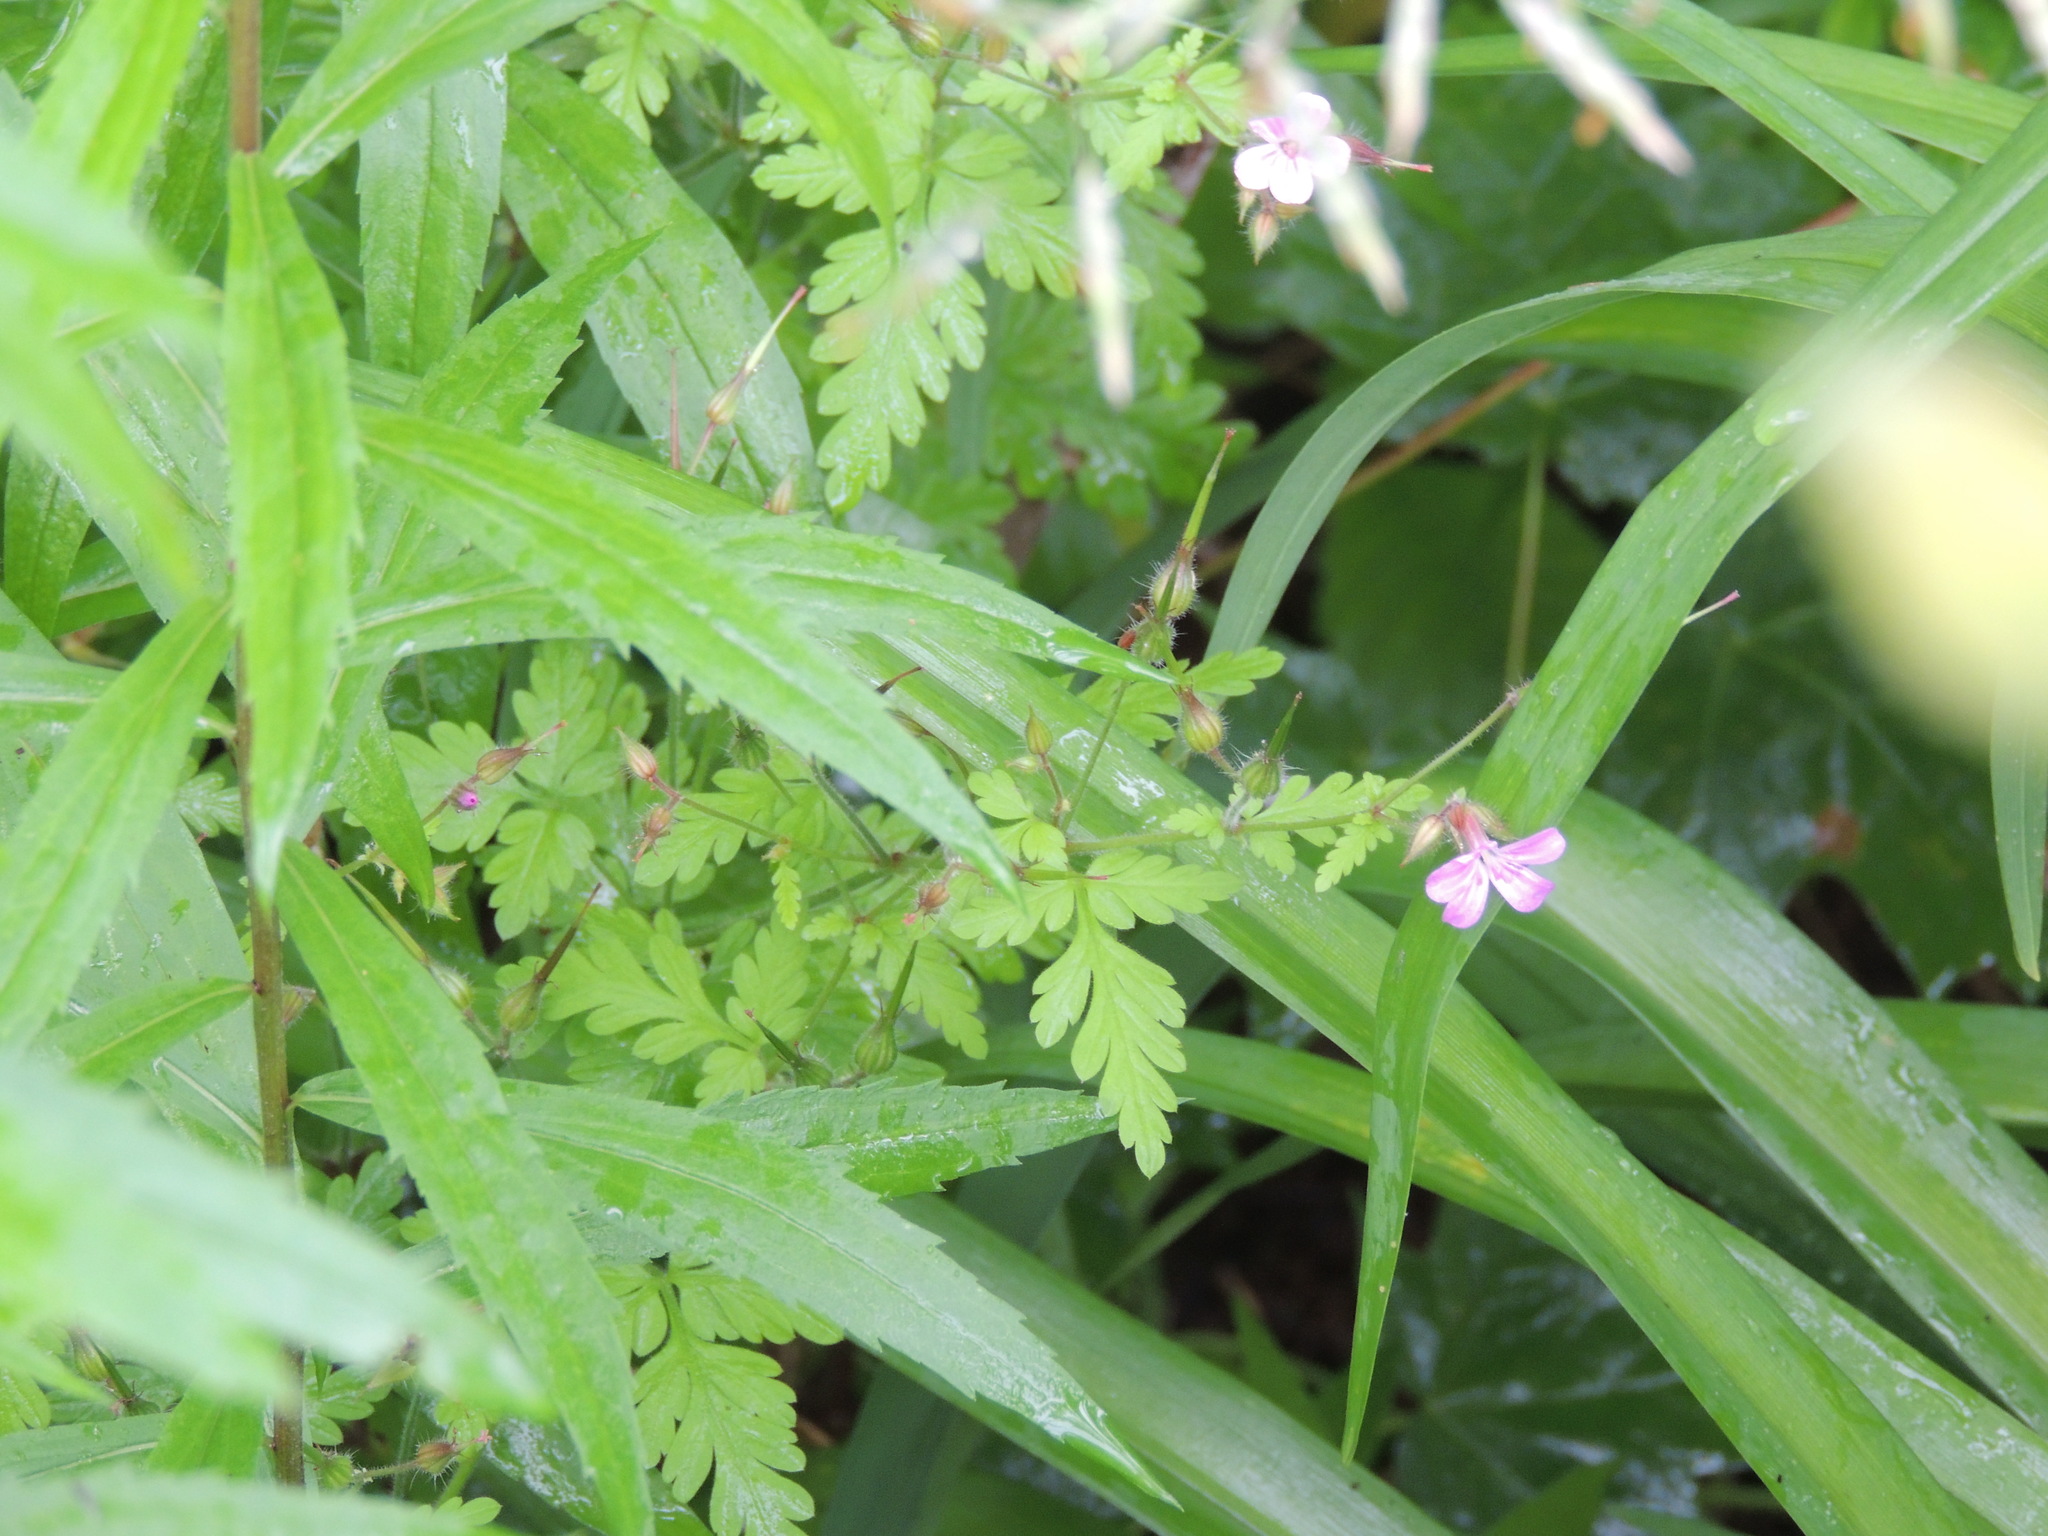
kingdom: Plantae
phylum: Tracheophyta
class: Magnoliopsida
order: Geraniales
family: Geraniaceae
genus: Geranium
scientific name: Geranium robertianum
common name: Herb-robert
